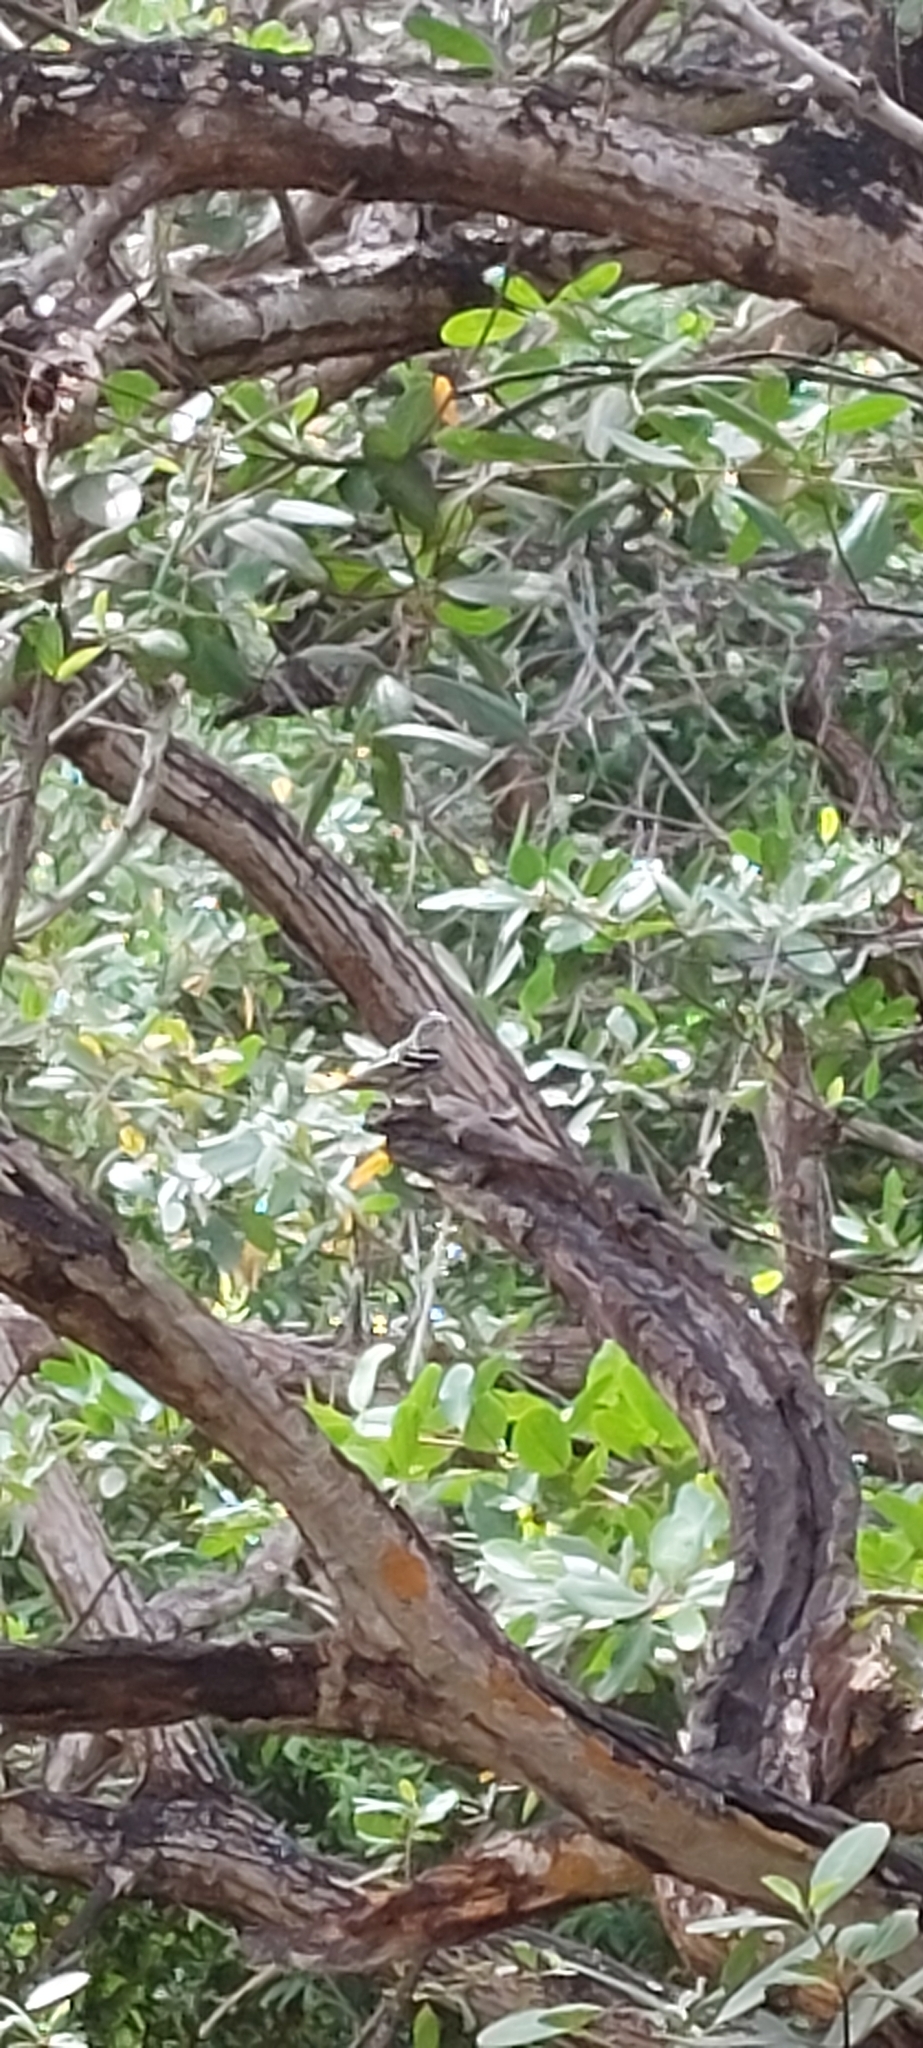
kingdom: Animalia
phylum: Chordata
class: Aves
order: Passeriformes
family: Parulidae
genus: Mniotilta
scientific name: Mniotilta varia
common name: Black-and-white warbler
